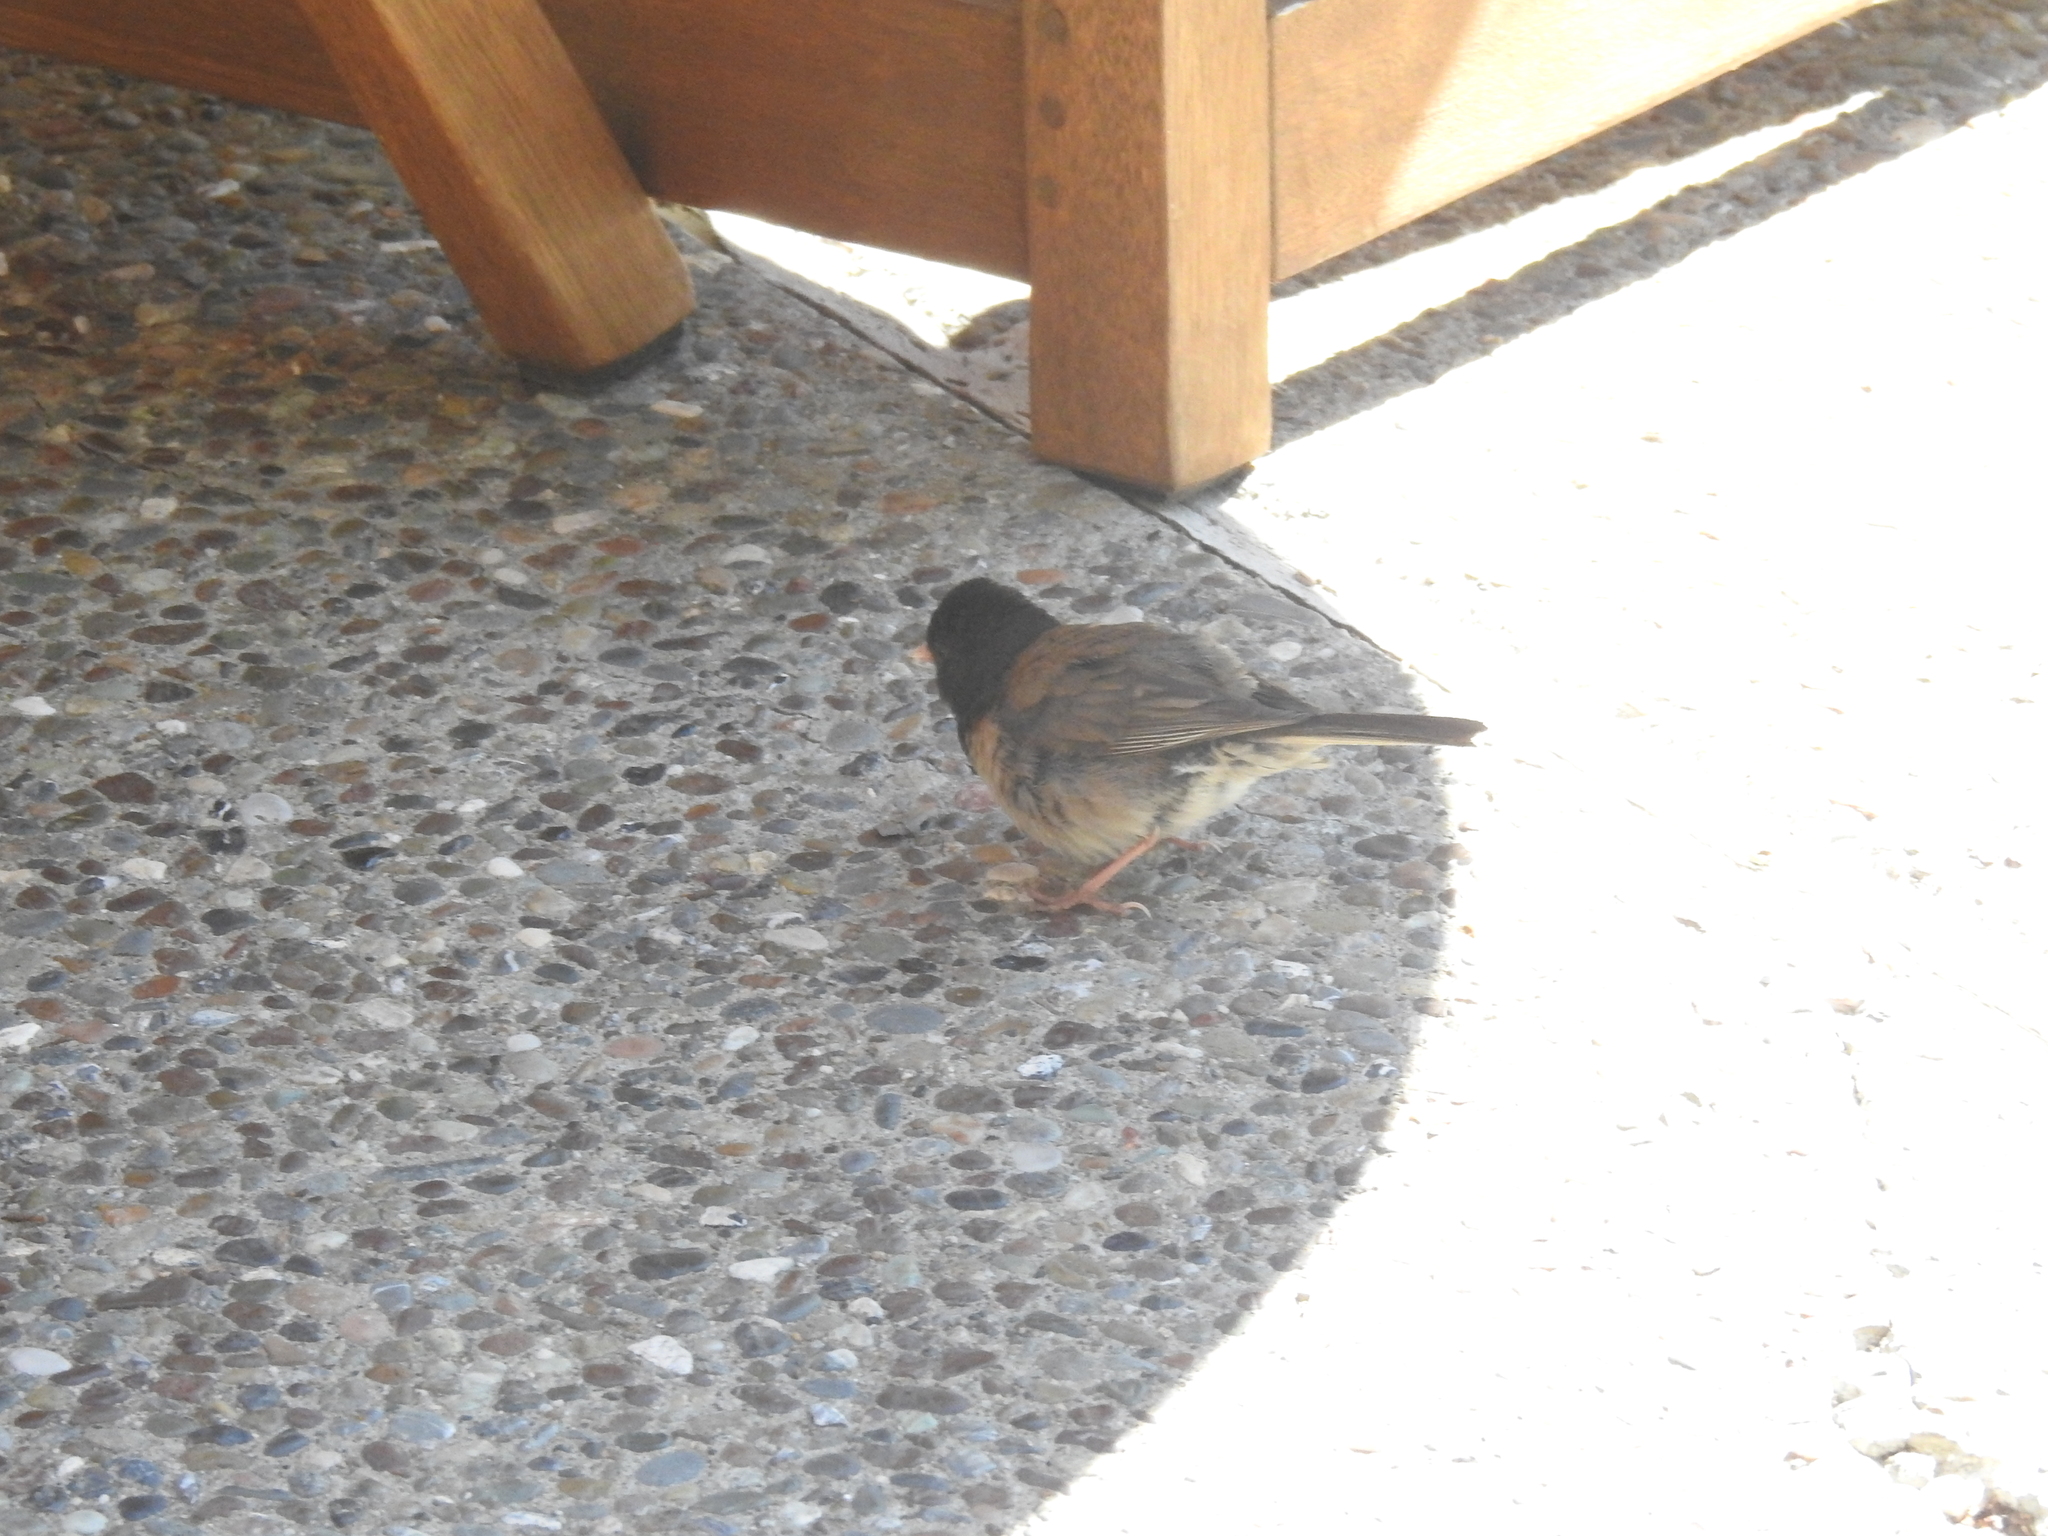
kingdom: Animalia
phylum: Chordata
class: Aves
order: Passeriformes
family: Passerellidae
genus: Junco
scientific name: Junco hyemalis
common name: Dark-eyed junco
